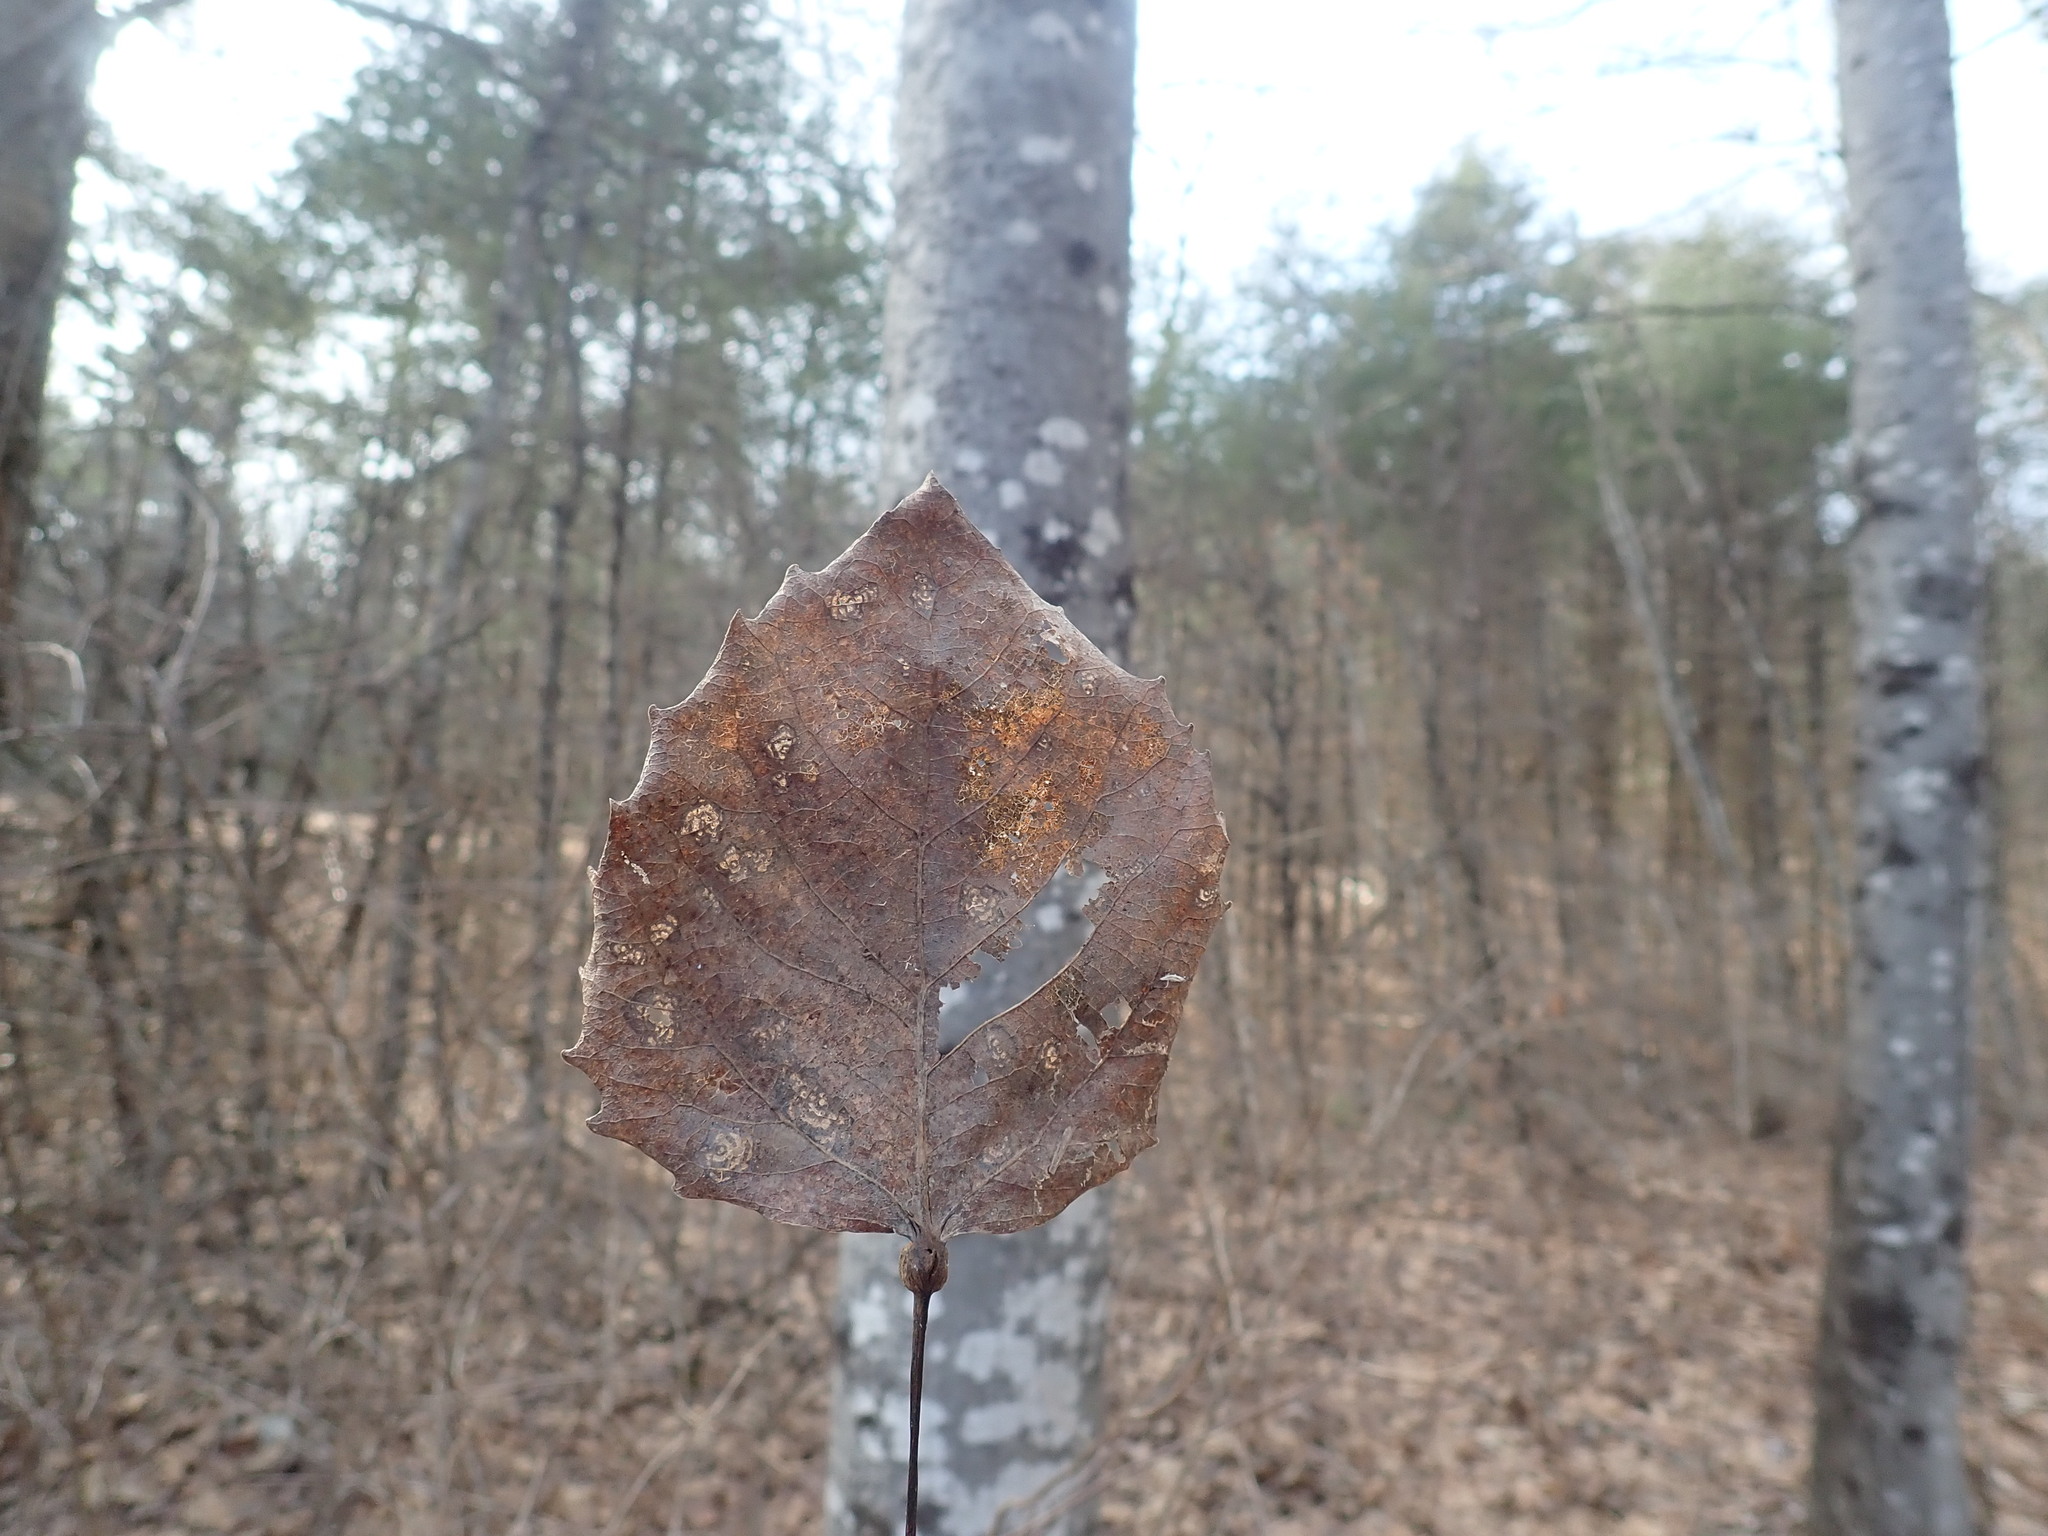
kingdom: Plantae
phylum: Tracheophyta
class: Magnoliopsida
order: Malpighiales
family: Salicaceae
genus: Populus
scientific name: Populus grandidentata
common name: Bigtooth aspen
